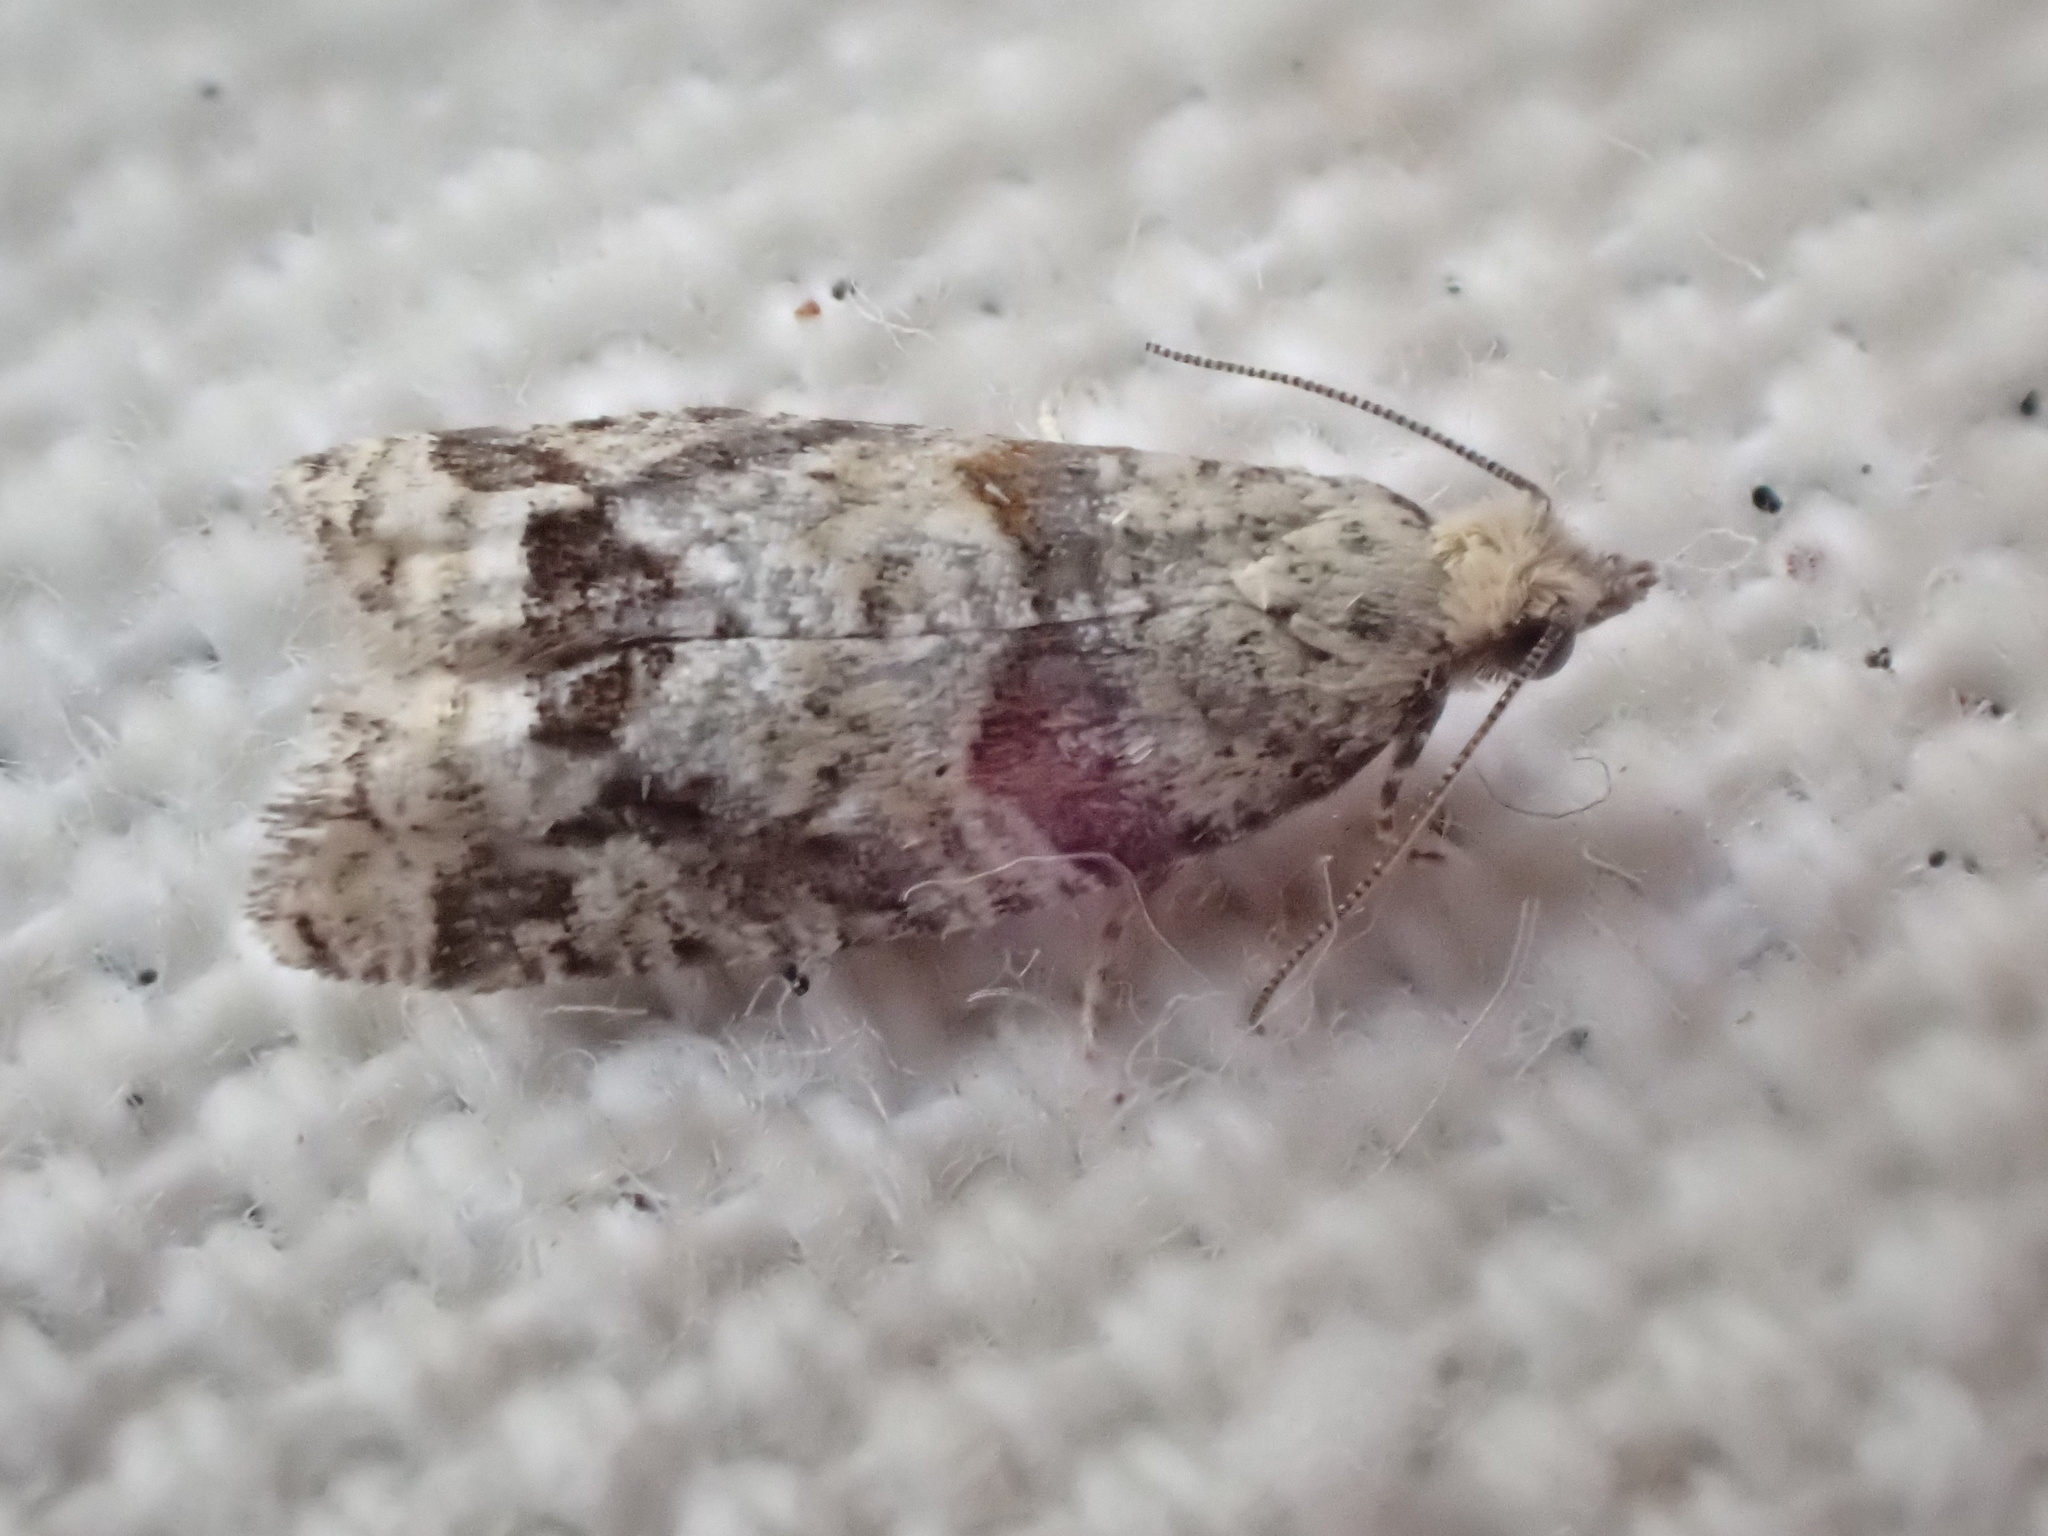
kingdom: Animalia
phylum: Arthropoda
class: Insecta
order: Lepidoptera
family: Tortricidae
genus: Epinotia
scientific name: Epinotia radicana
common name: Red-striped needleworm moth
